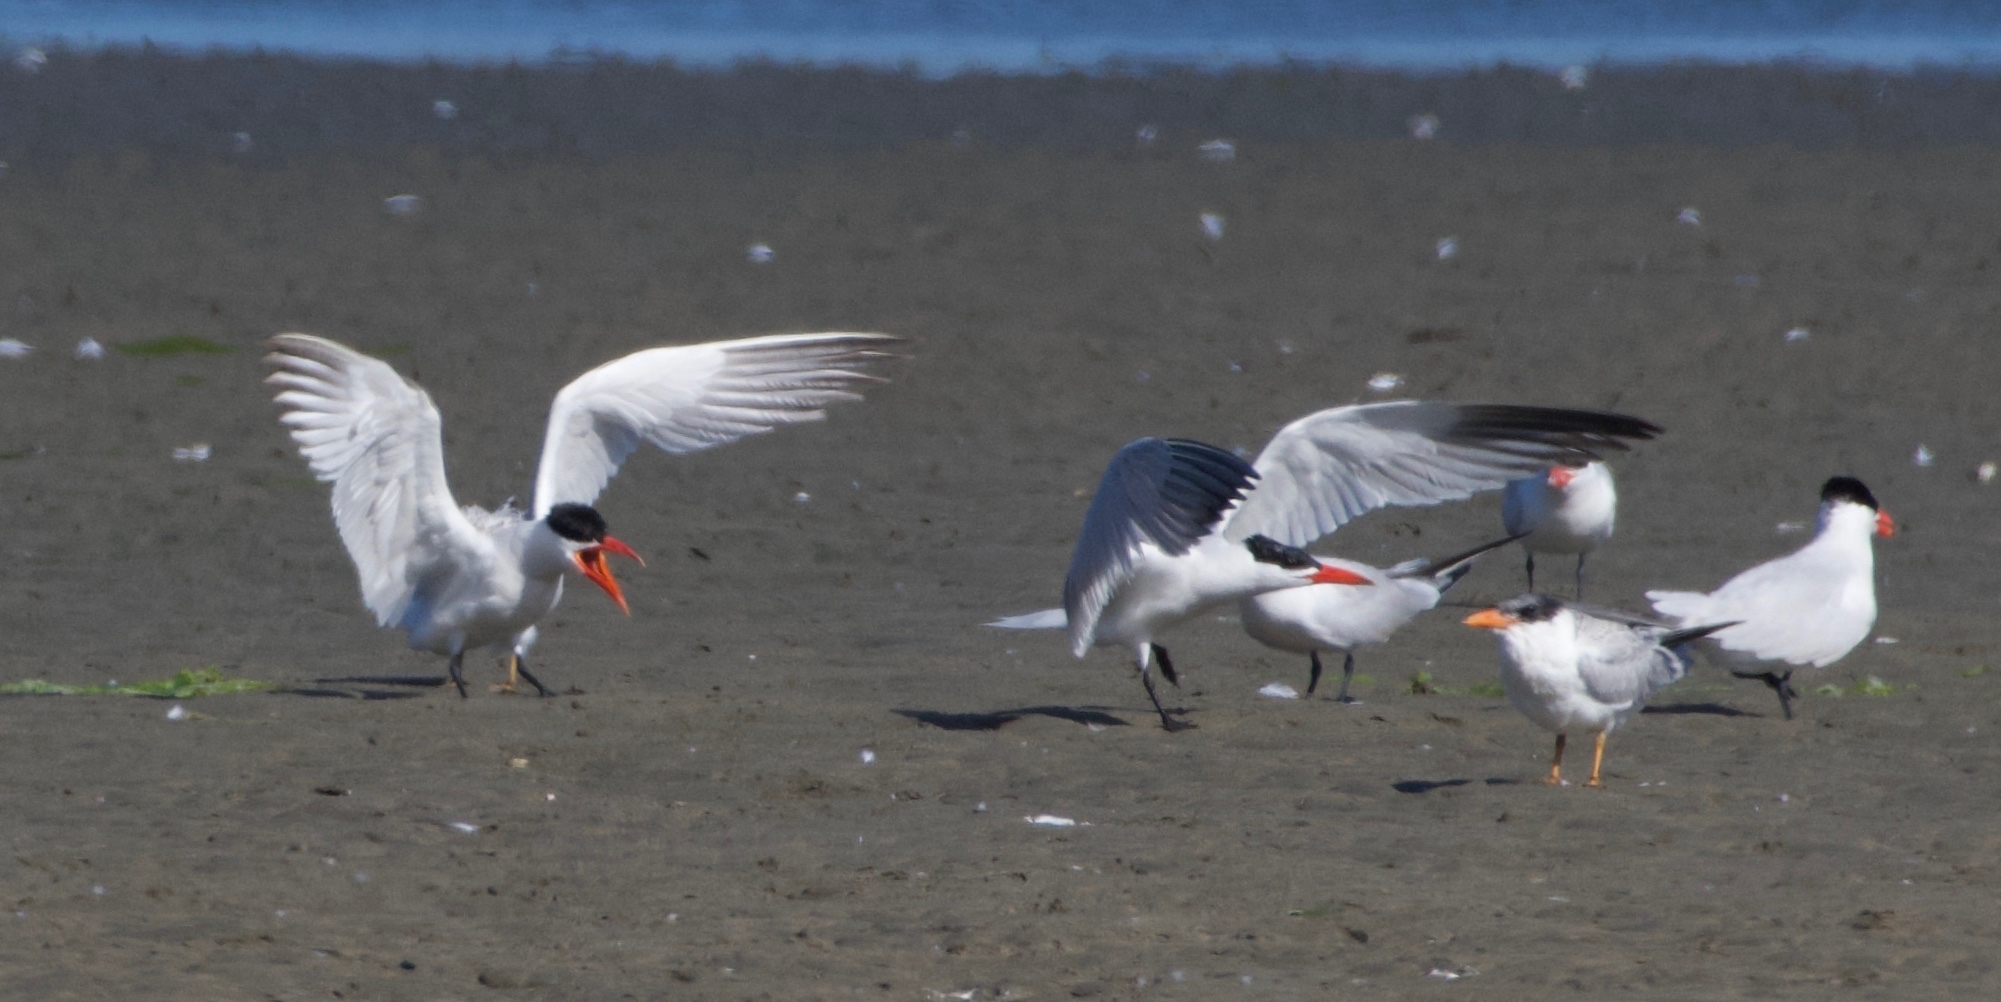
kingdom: Animalia
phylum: Chordata
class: Aves
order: Charadriiformes
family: Laridae
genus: Hydroprogne
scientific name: Hydroprogne caspia
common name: Caspian tern
